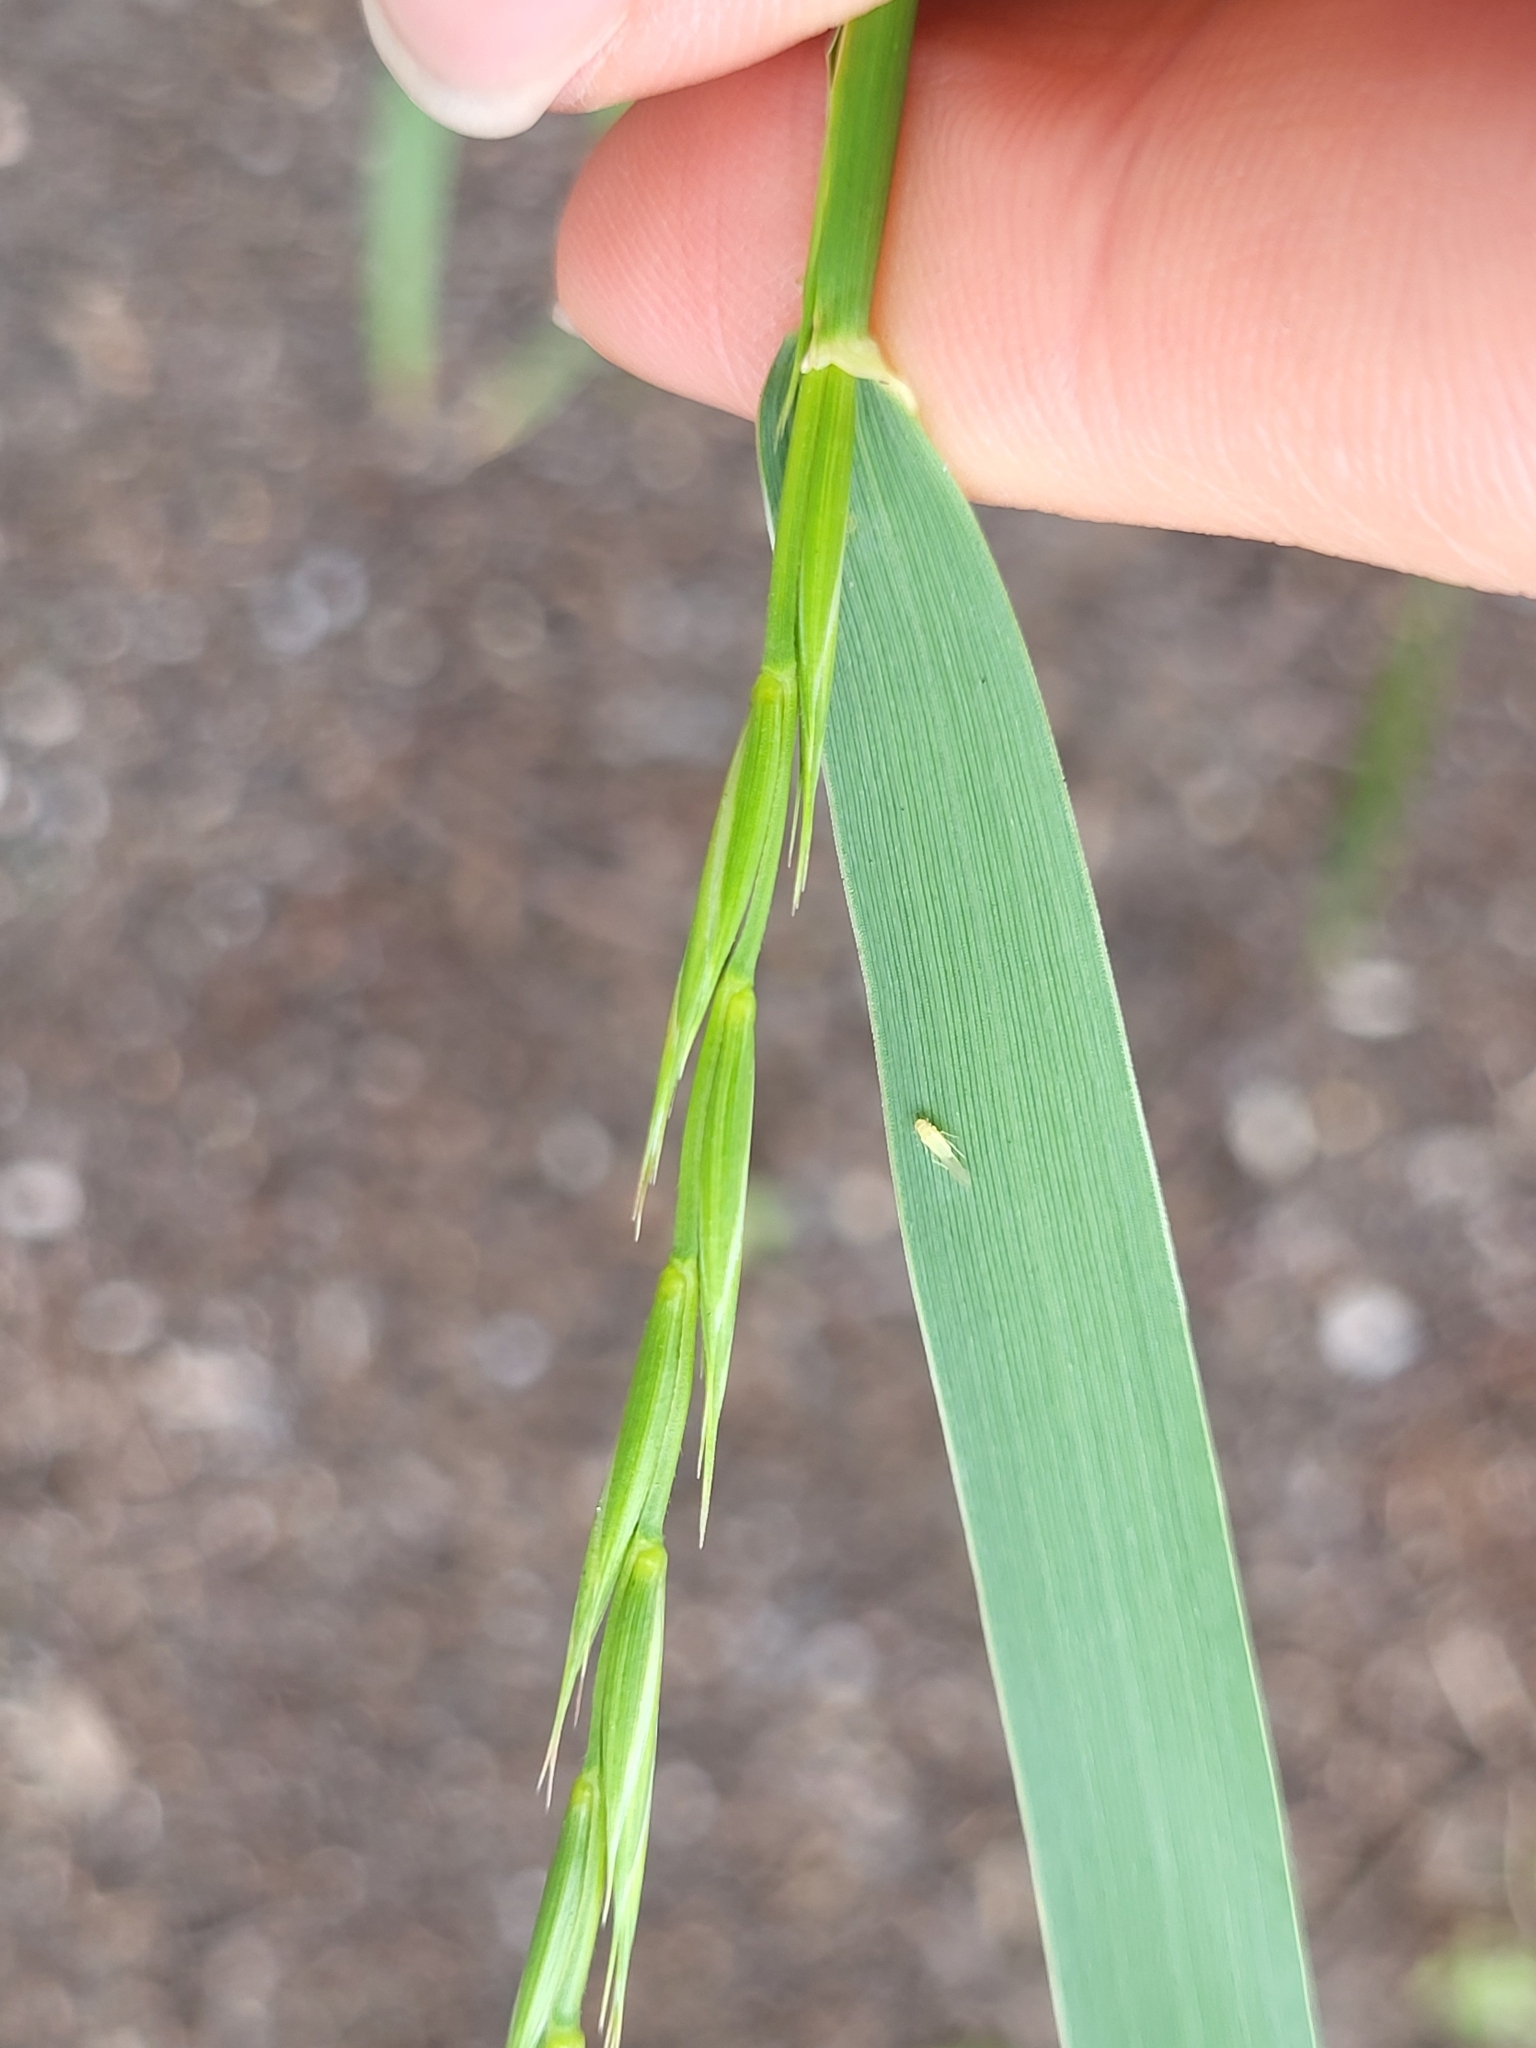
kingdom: Plantae
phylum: Tracheophyta
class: Liliopsida
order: Poales
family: Poaceae
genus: Elymus
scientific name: Elymus repens
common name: Quackgrass
